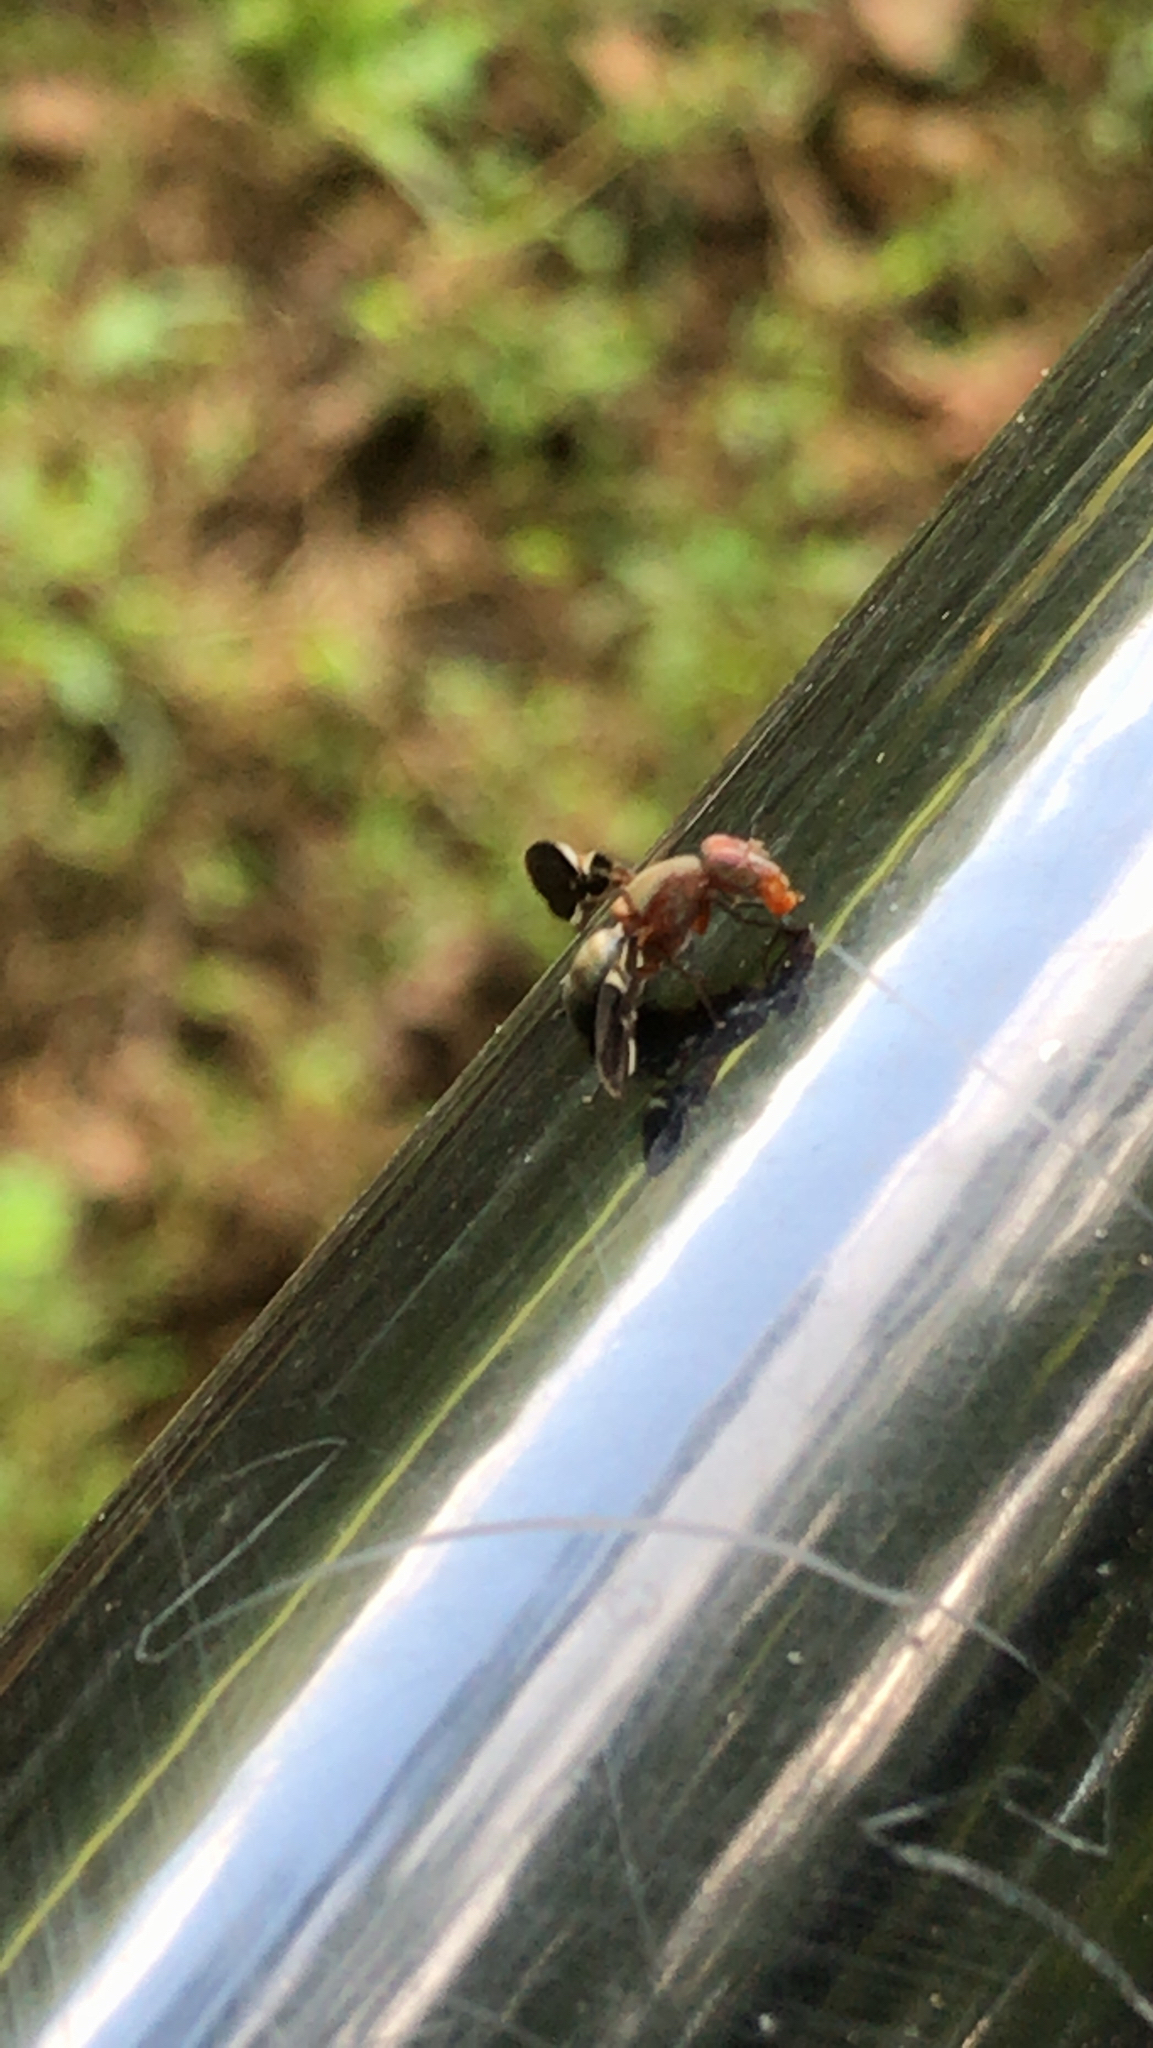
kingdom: Animalia
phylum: Arthropoda
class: Insecta
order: Diptera
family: Ulidiidae
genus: Delphinia
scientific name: Delphinia picta
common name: Common picture-winged fly
